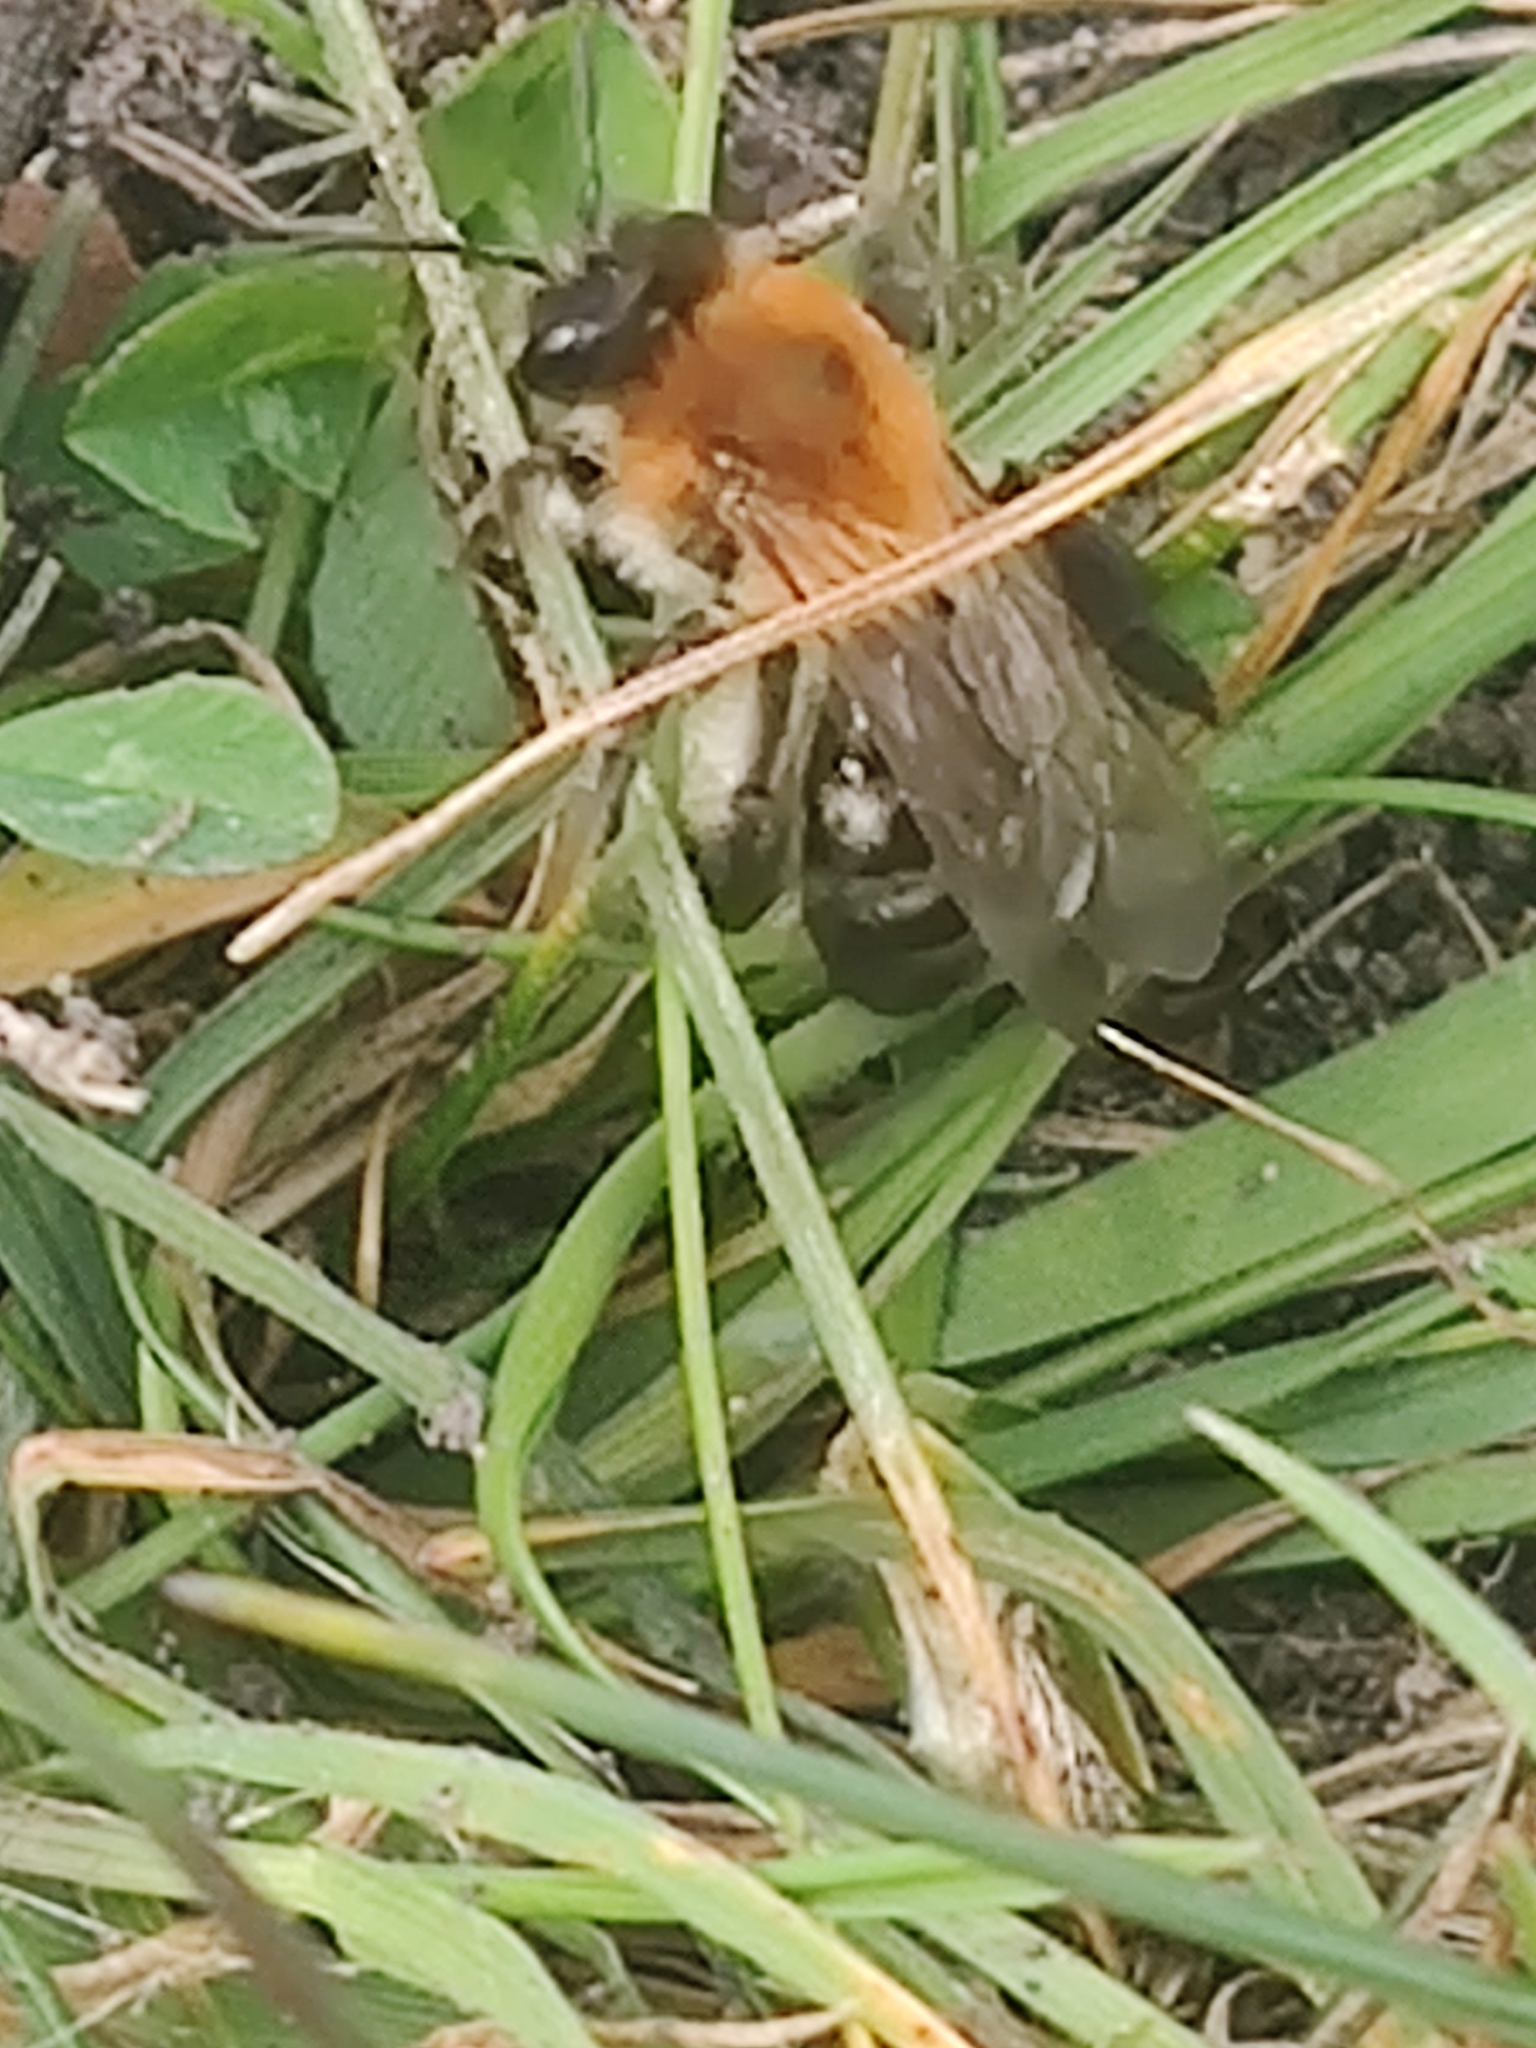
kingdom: Animalia
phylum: Arthropoda
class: Insecta
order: Hymenoptera
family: Andrenidae
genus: Andrena
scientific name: Andrena nitida
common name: Grey-patched mining bee
